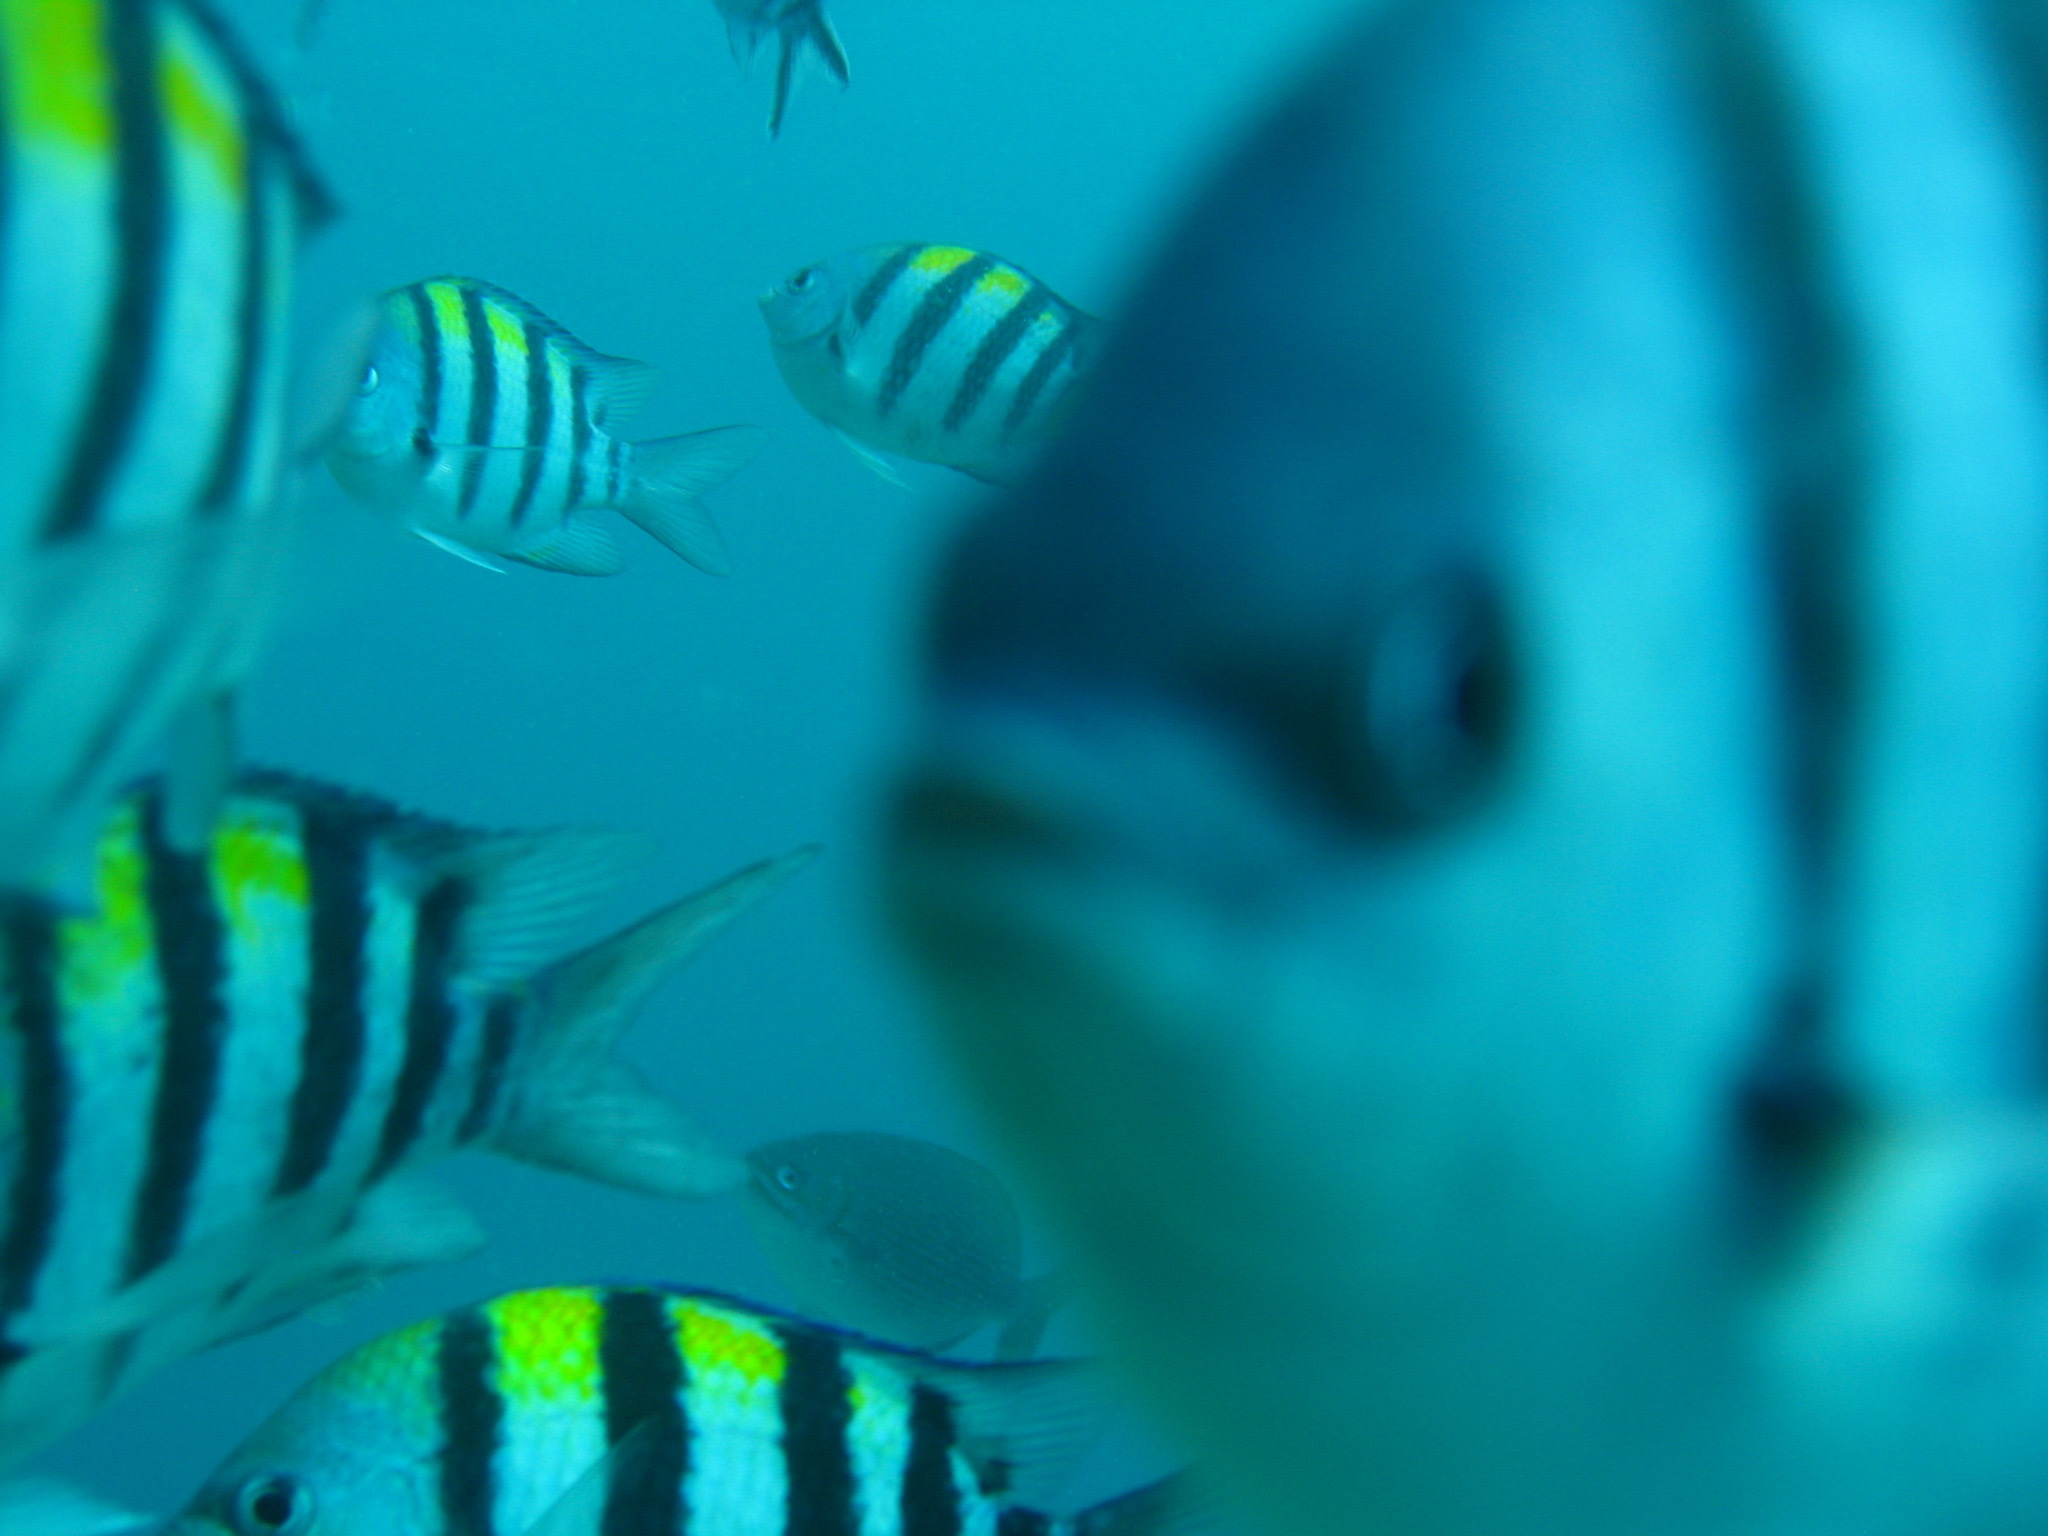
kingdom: Animalia
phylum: Chordata
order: Perciformes
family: Pomacentridae
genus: Abudefduf
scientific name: Abudefduf vaigiensis
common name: Indo-pacific sergeant
